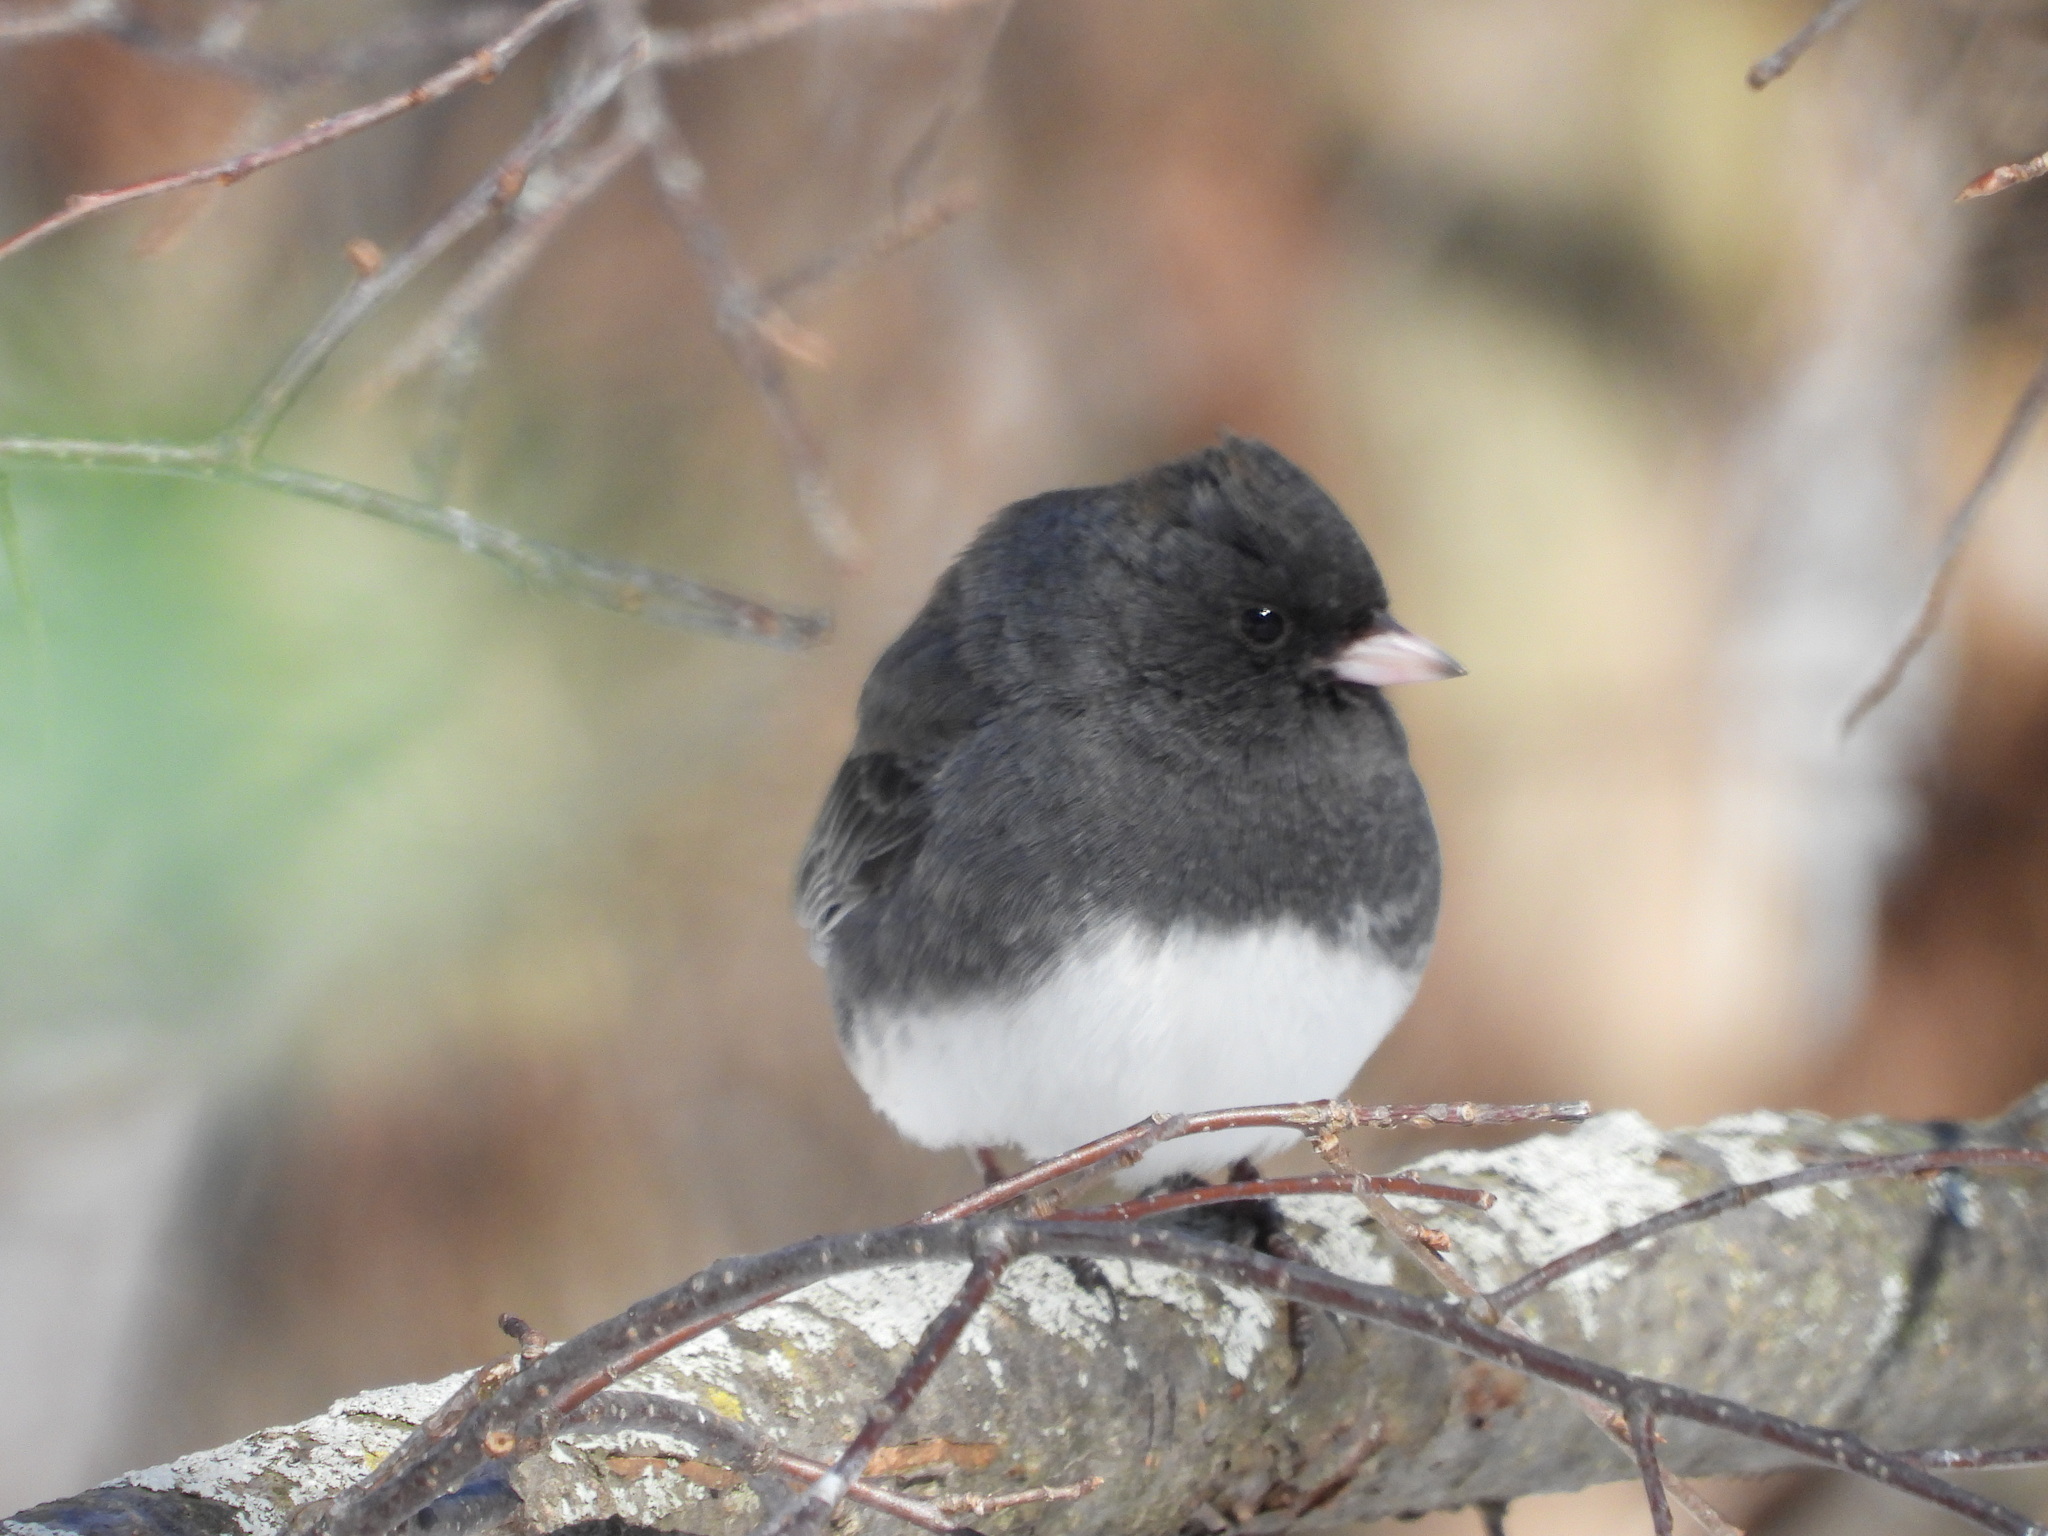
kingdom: Animalia
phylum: Chordata
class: Aves
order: Passeriformes
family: Passerellidae
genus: Junco
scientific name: Junco hyemalis
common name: Dark-eyed junco
